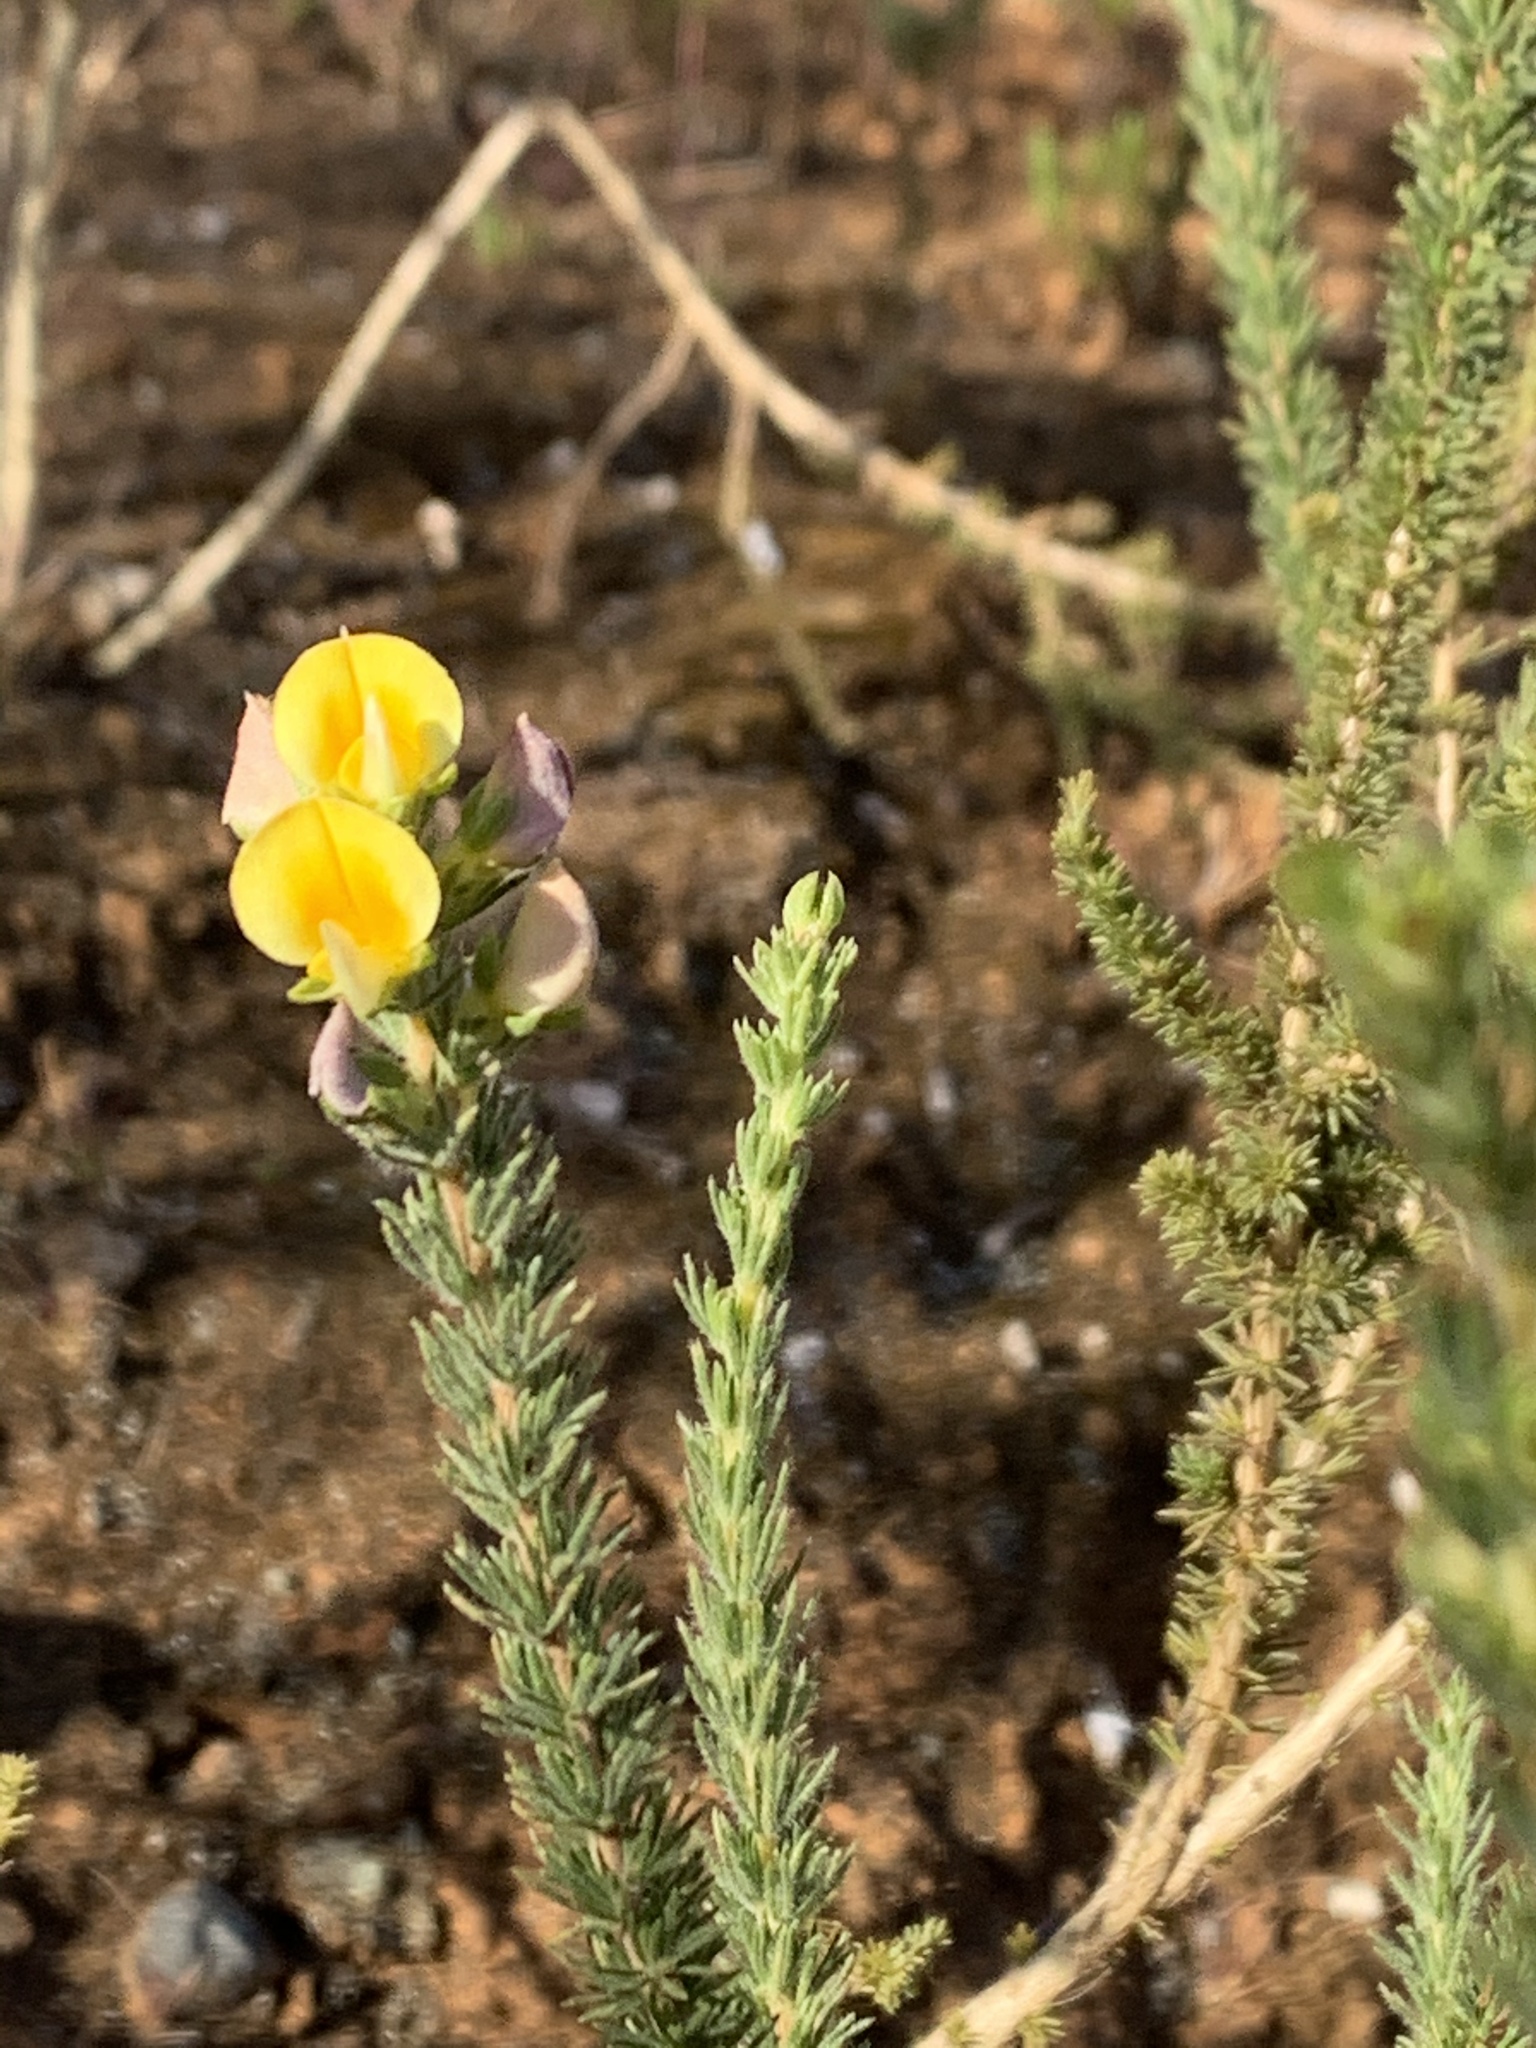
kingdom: Plantae
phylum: Tracheophyta
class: Magnoliopsida
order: Fabales
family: Fabaceae
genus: Aspalathus
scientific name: Aspalathus cymbiformis
